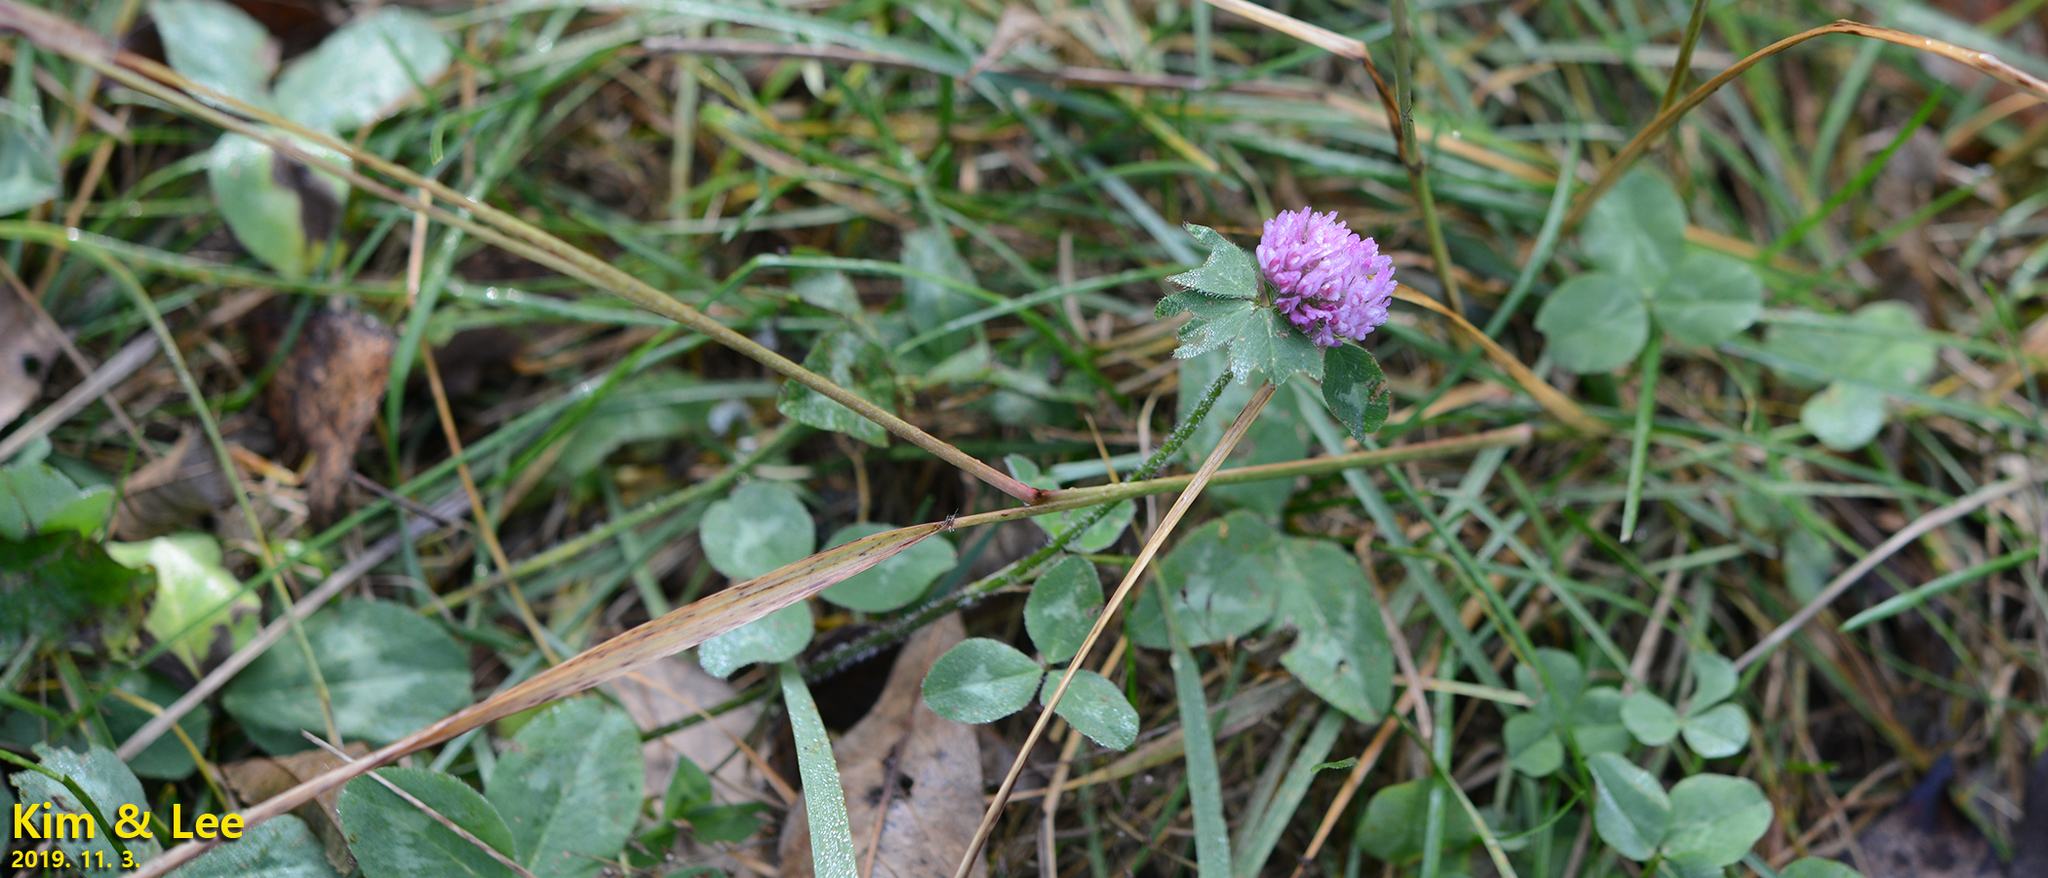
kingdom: Plantae
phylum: Tracheophyta
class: Magnoliopsida
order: Fabales
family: Fabaceae
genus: Trifolium
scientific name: Trifolium pratense
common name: Red clover
